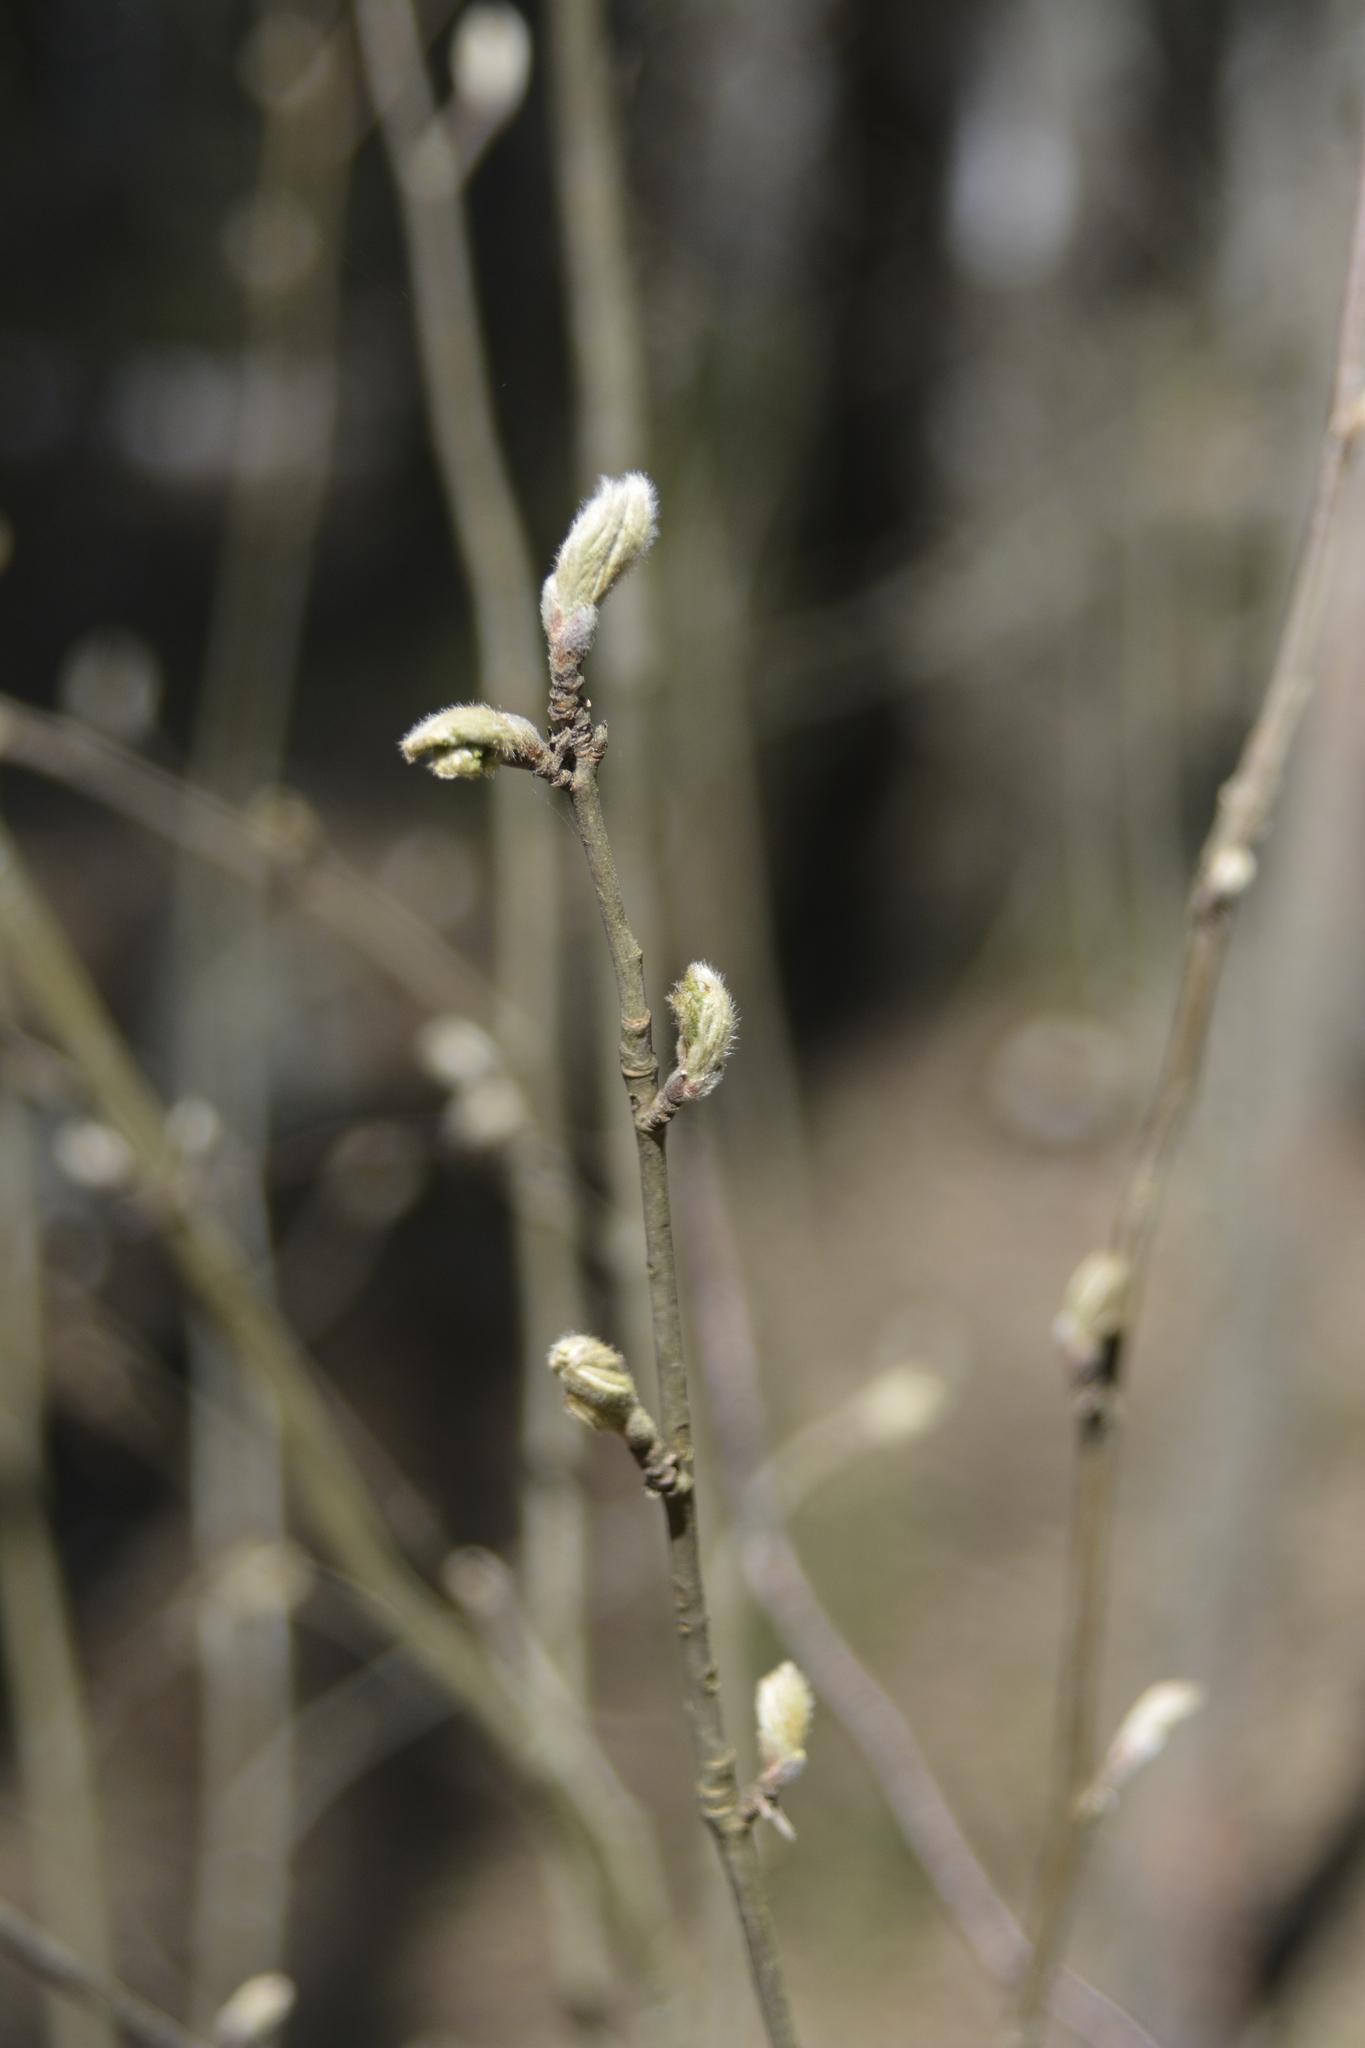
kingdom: Plantae
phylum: Tracheophyta
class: Magnoliopsida
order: Rosales
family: Rosaceae
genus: Sorbus
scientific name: Sorbus aucuparia
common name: Rowan
